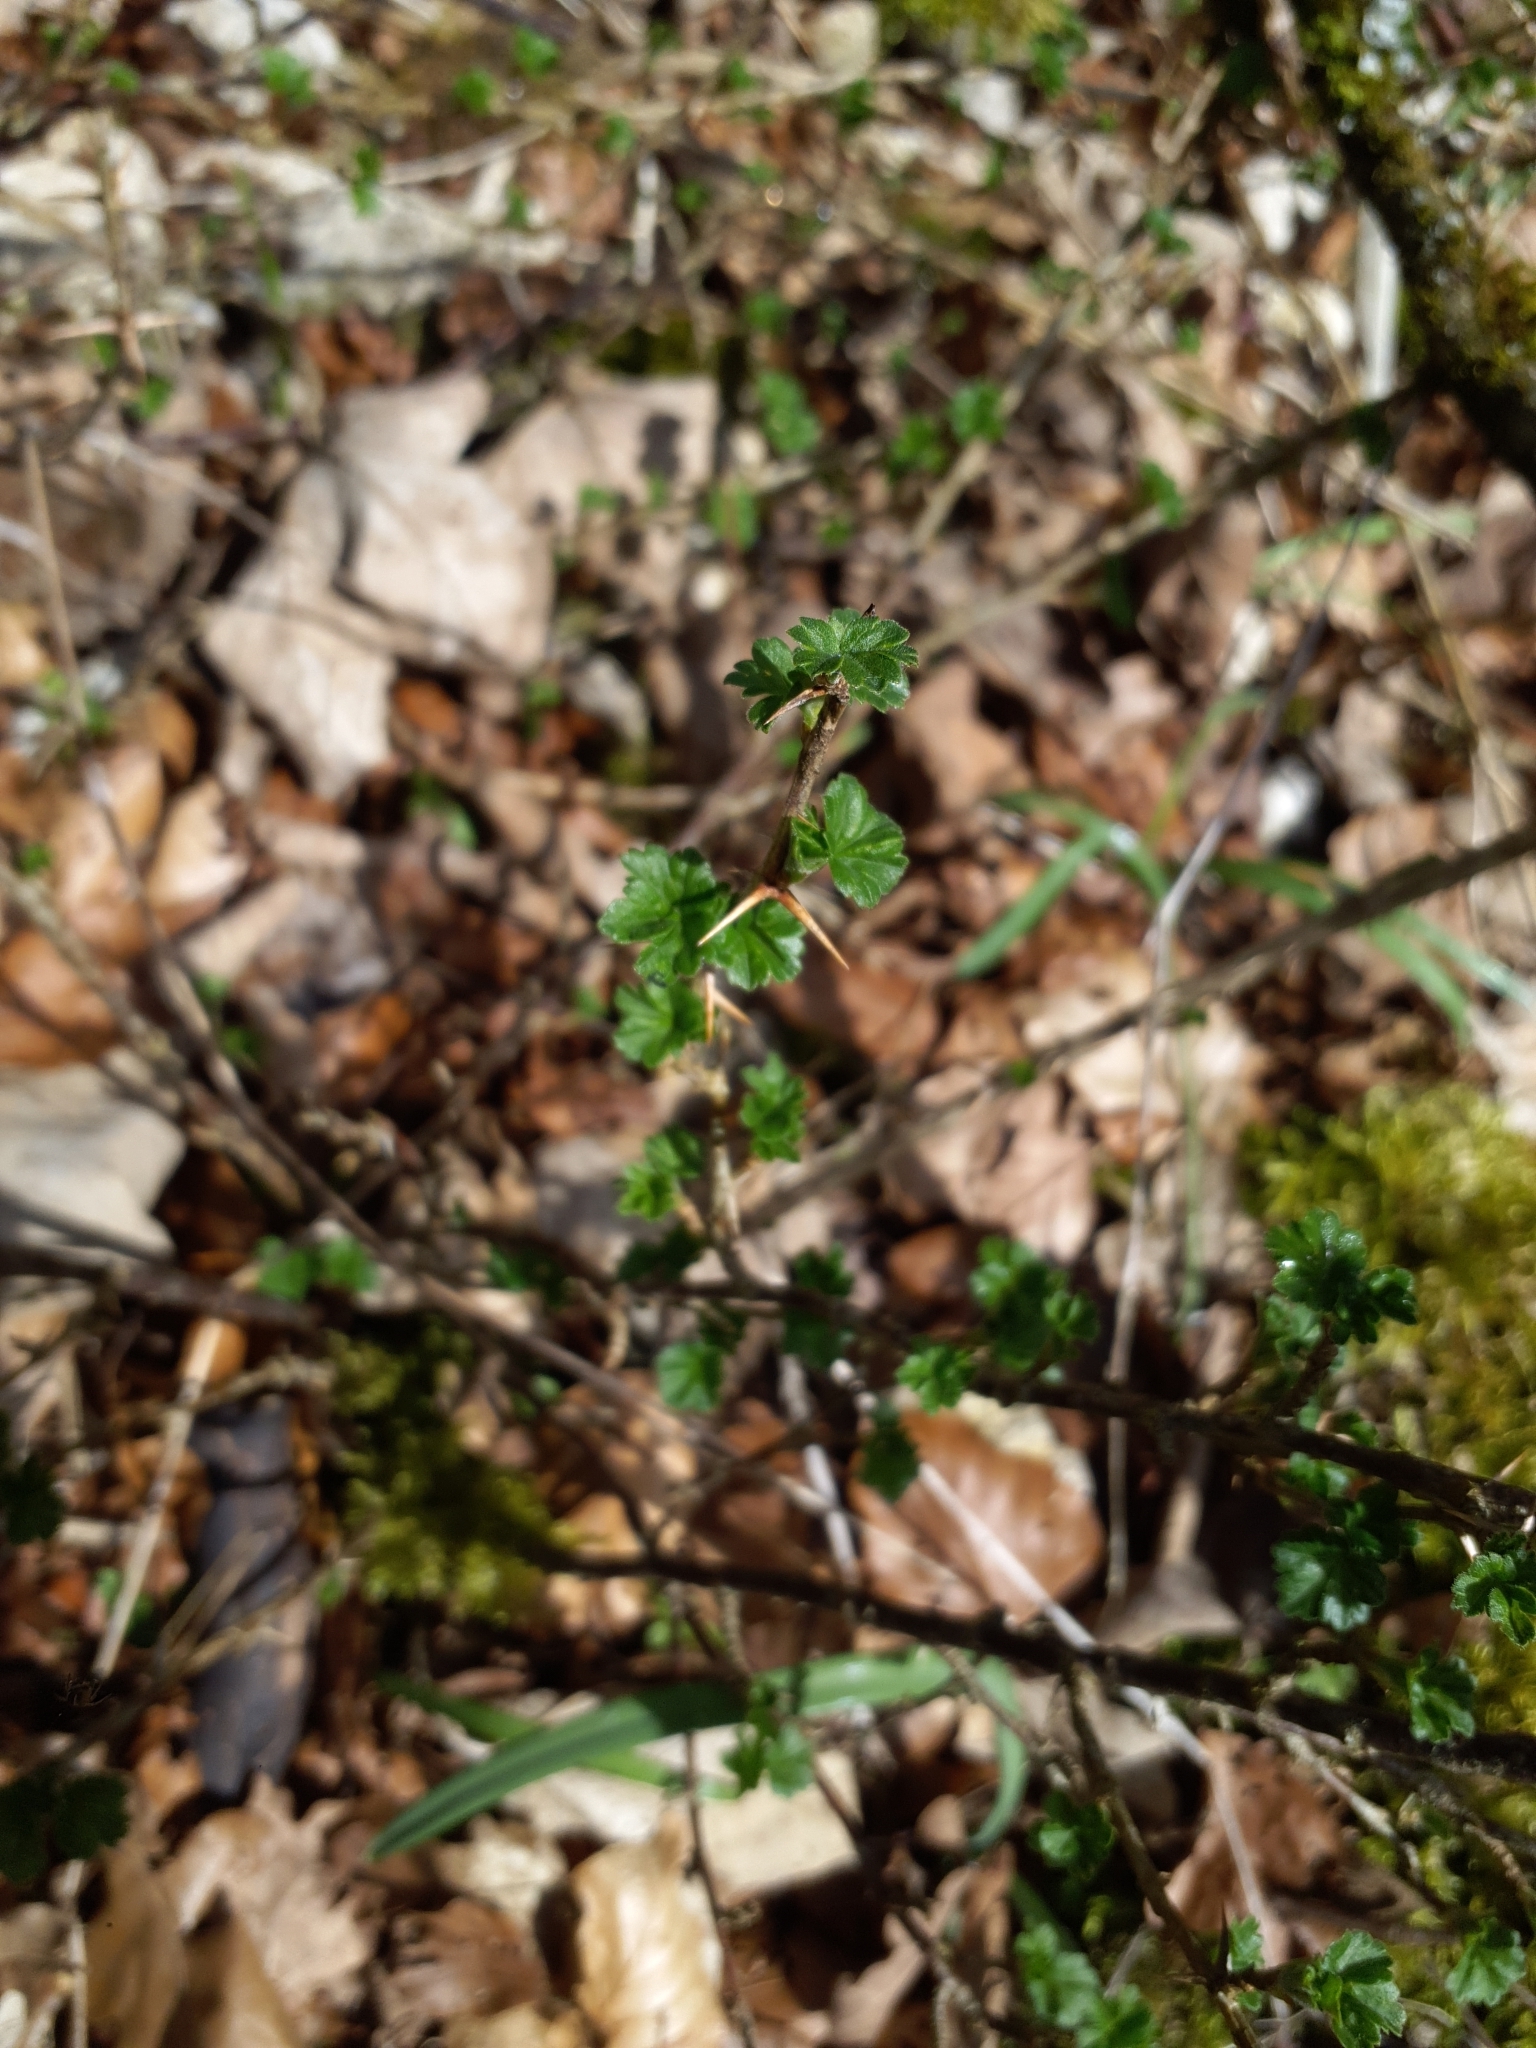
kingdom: Plantae
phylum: Tracheophyta
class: Magnoliopsida
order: Saxifragales
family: Grossulariaceae
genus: Ribes
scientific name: Ribes uva-crispa
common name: Gooseberry
